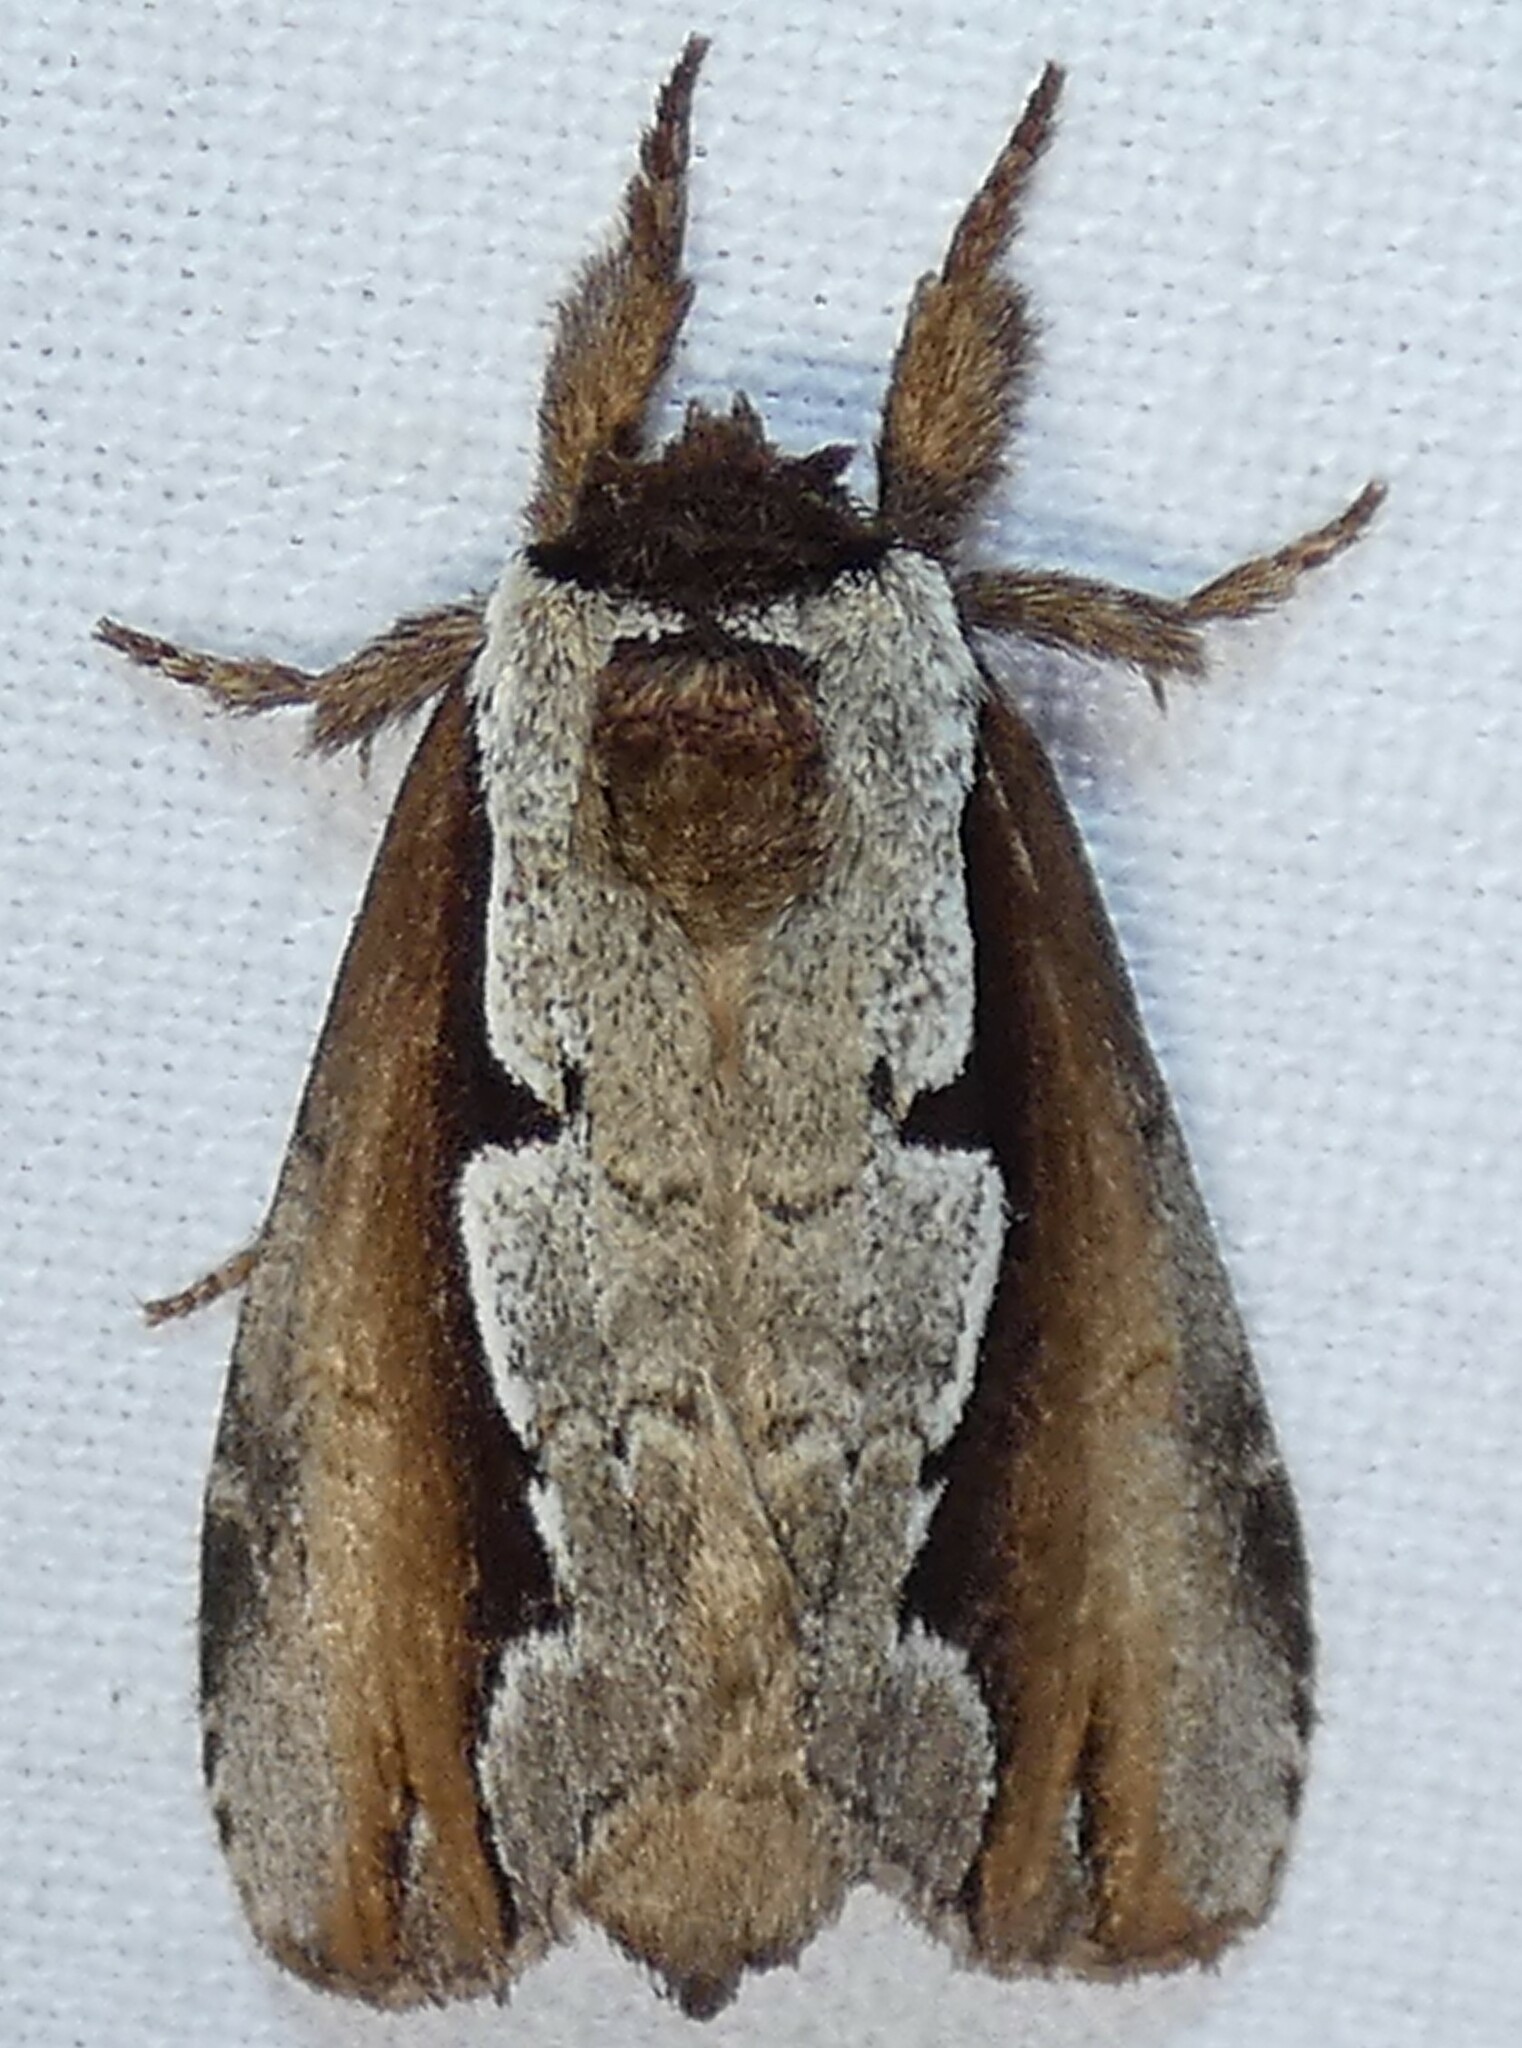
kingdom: Animalia
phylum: Arthropoda
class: Insecta
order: Lepidoptera
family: Notodontidae
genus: Nerice
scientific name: Nerice bidentata
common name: Double-toothed prominent
